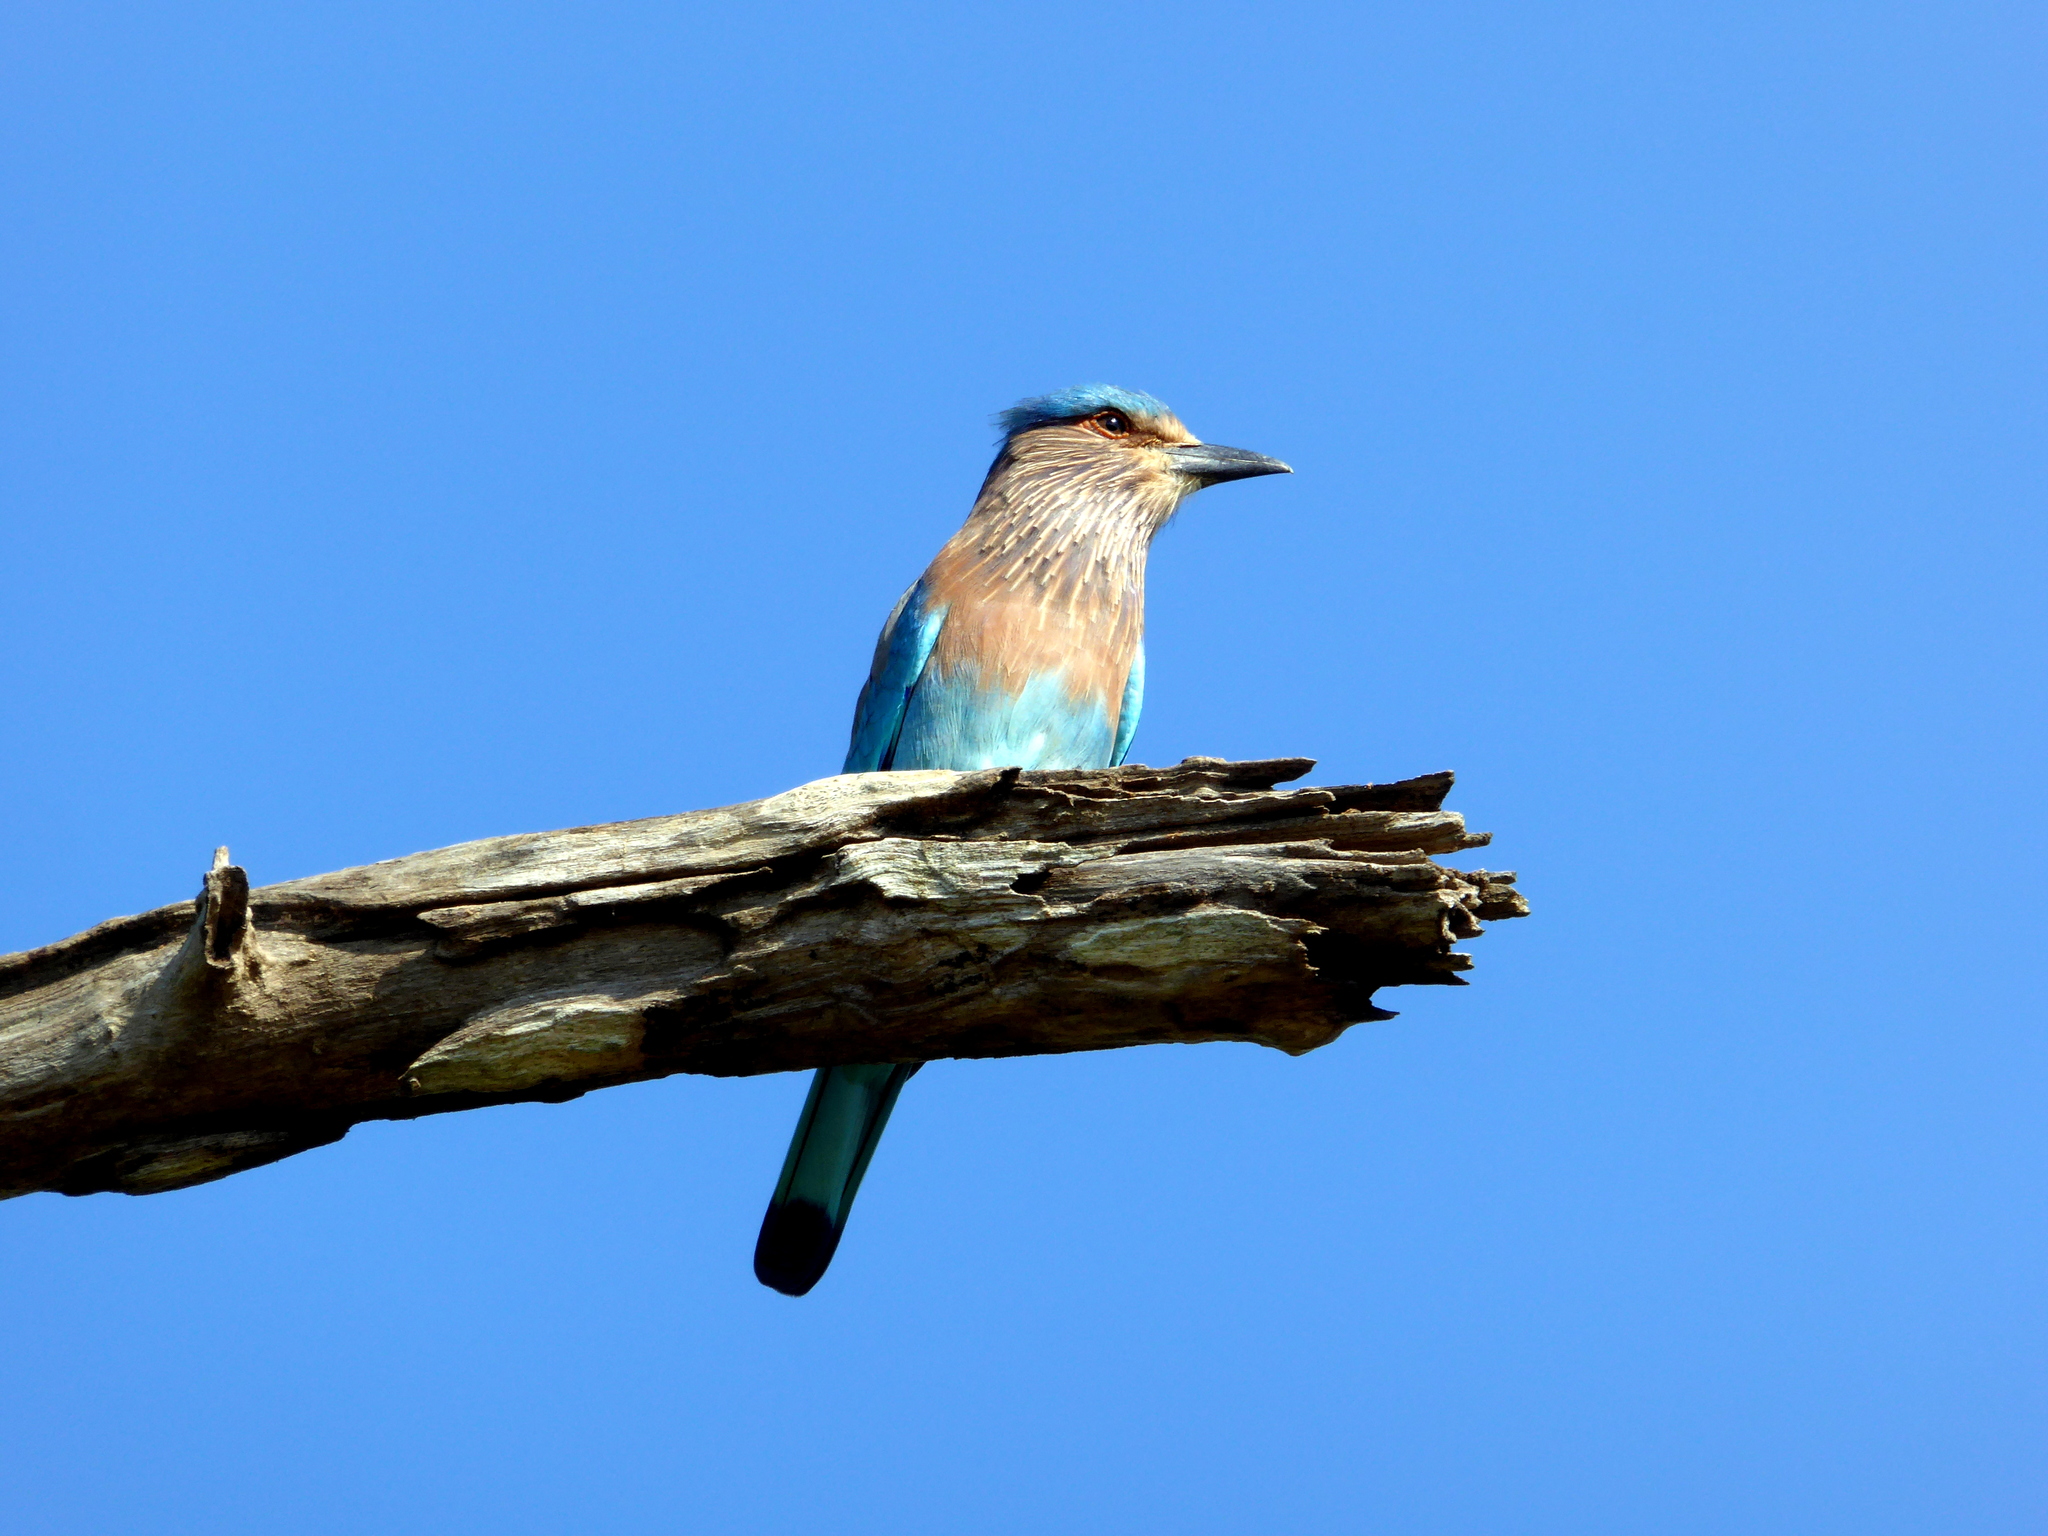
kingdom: Animalia
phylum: Chordata
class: Aves
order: Coraciiformes
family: Coraciidae
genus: Coracias
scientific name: Coracias benghalensis
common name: Indian roller
